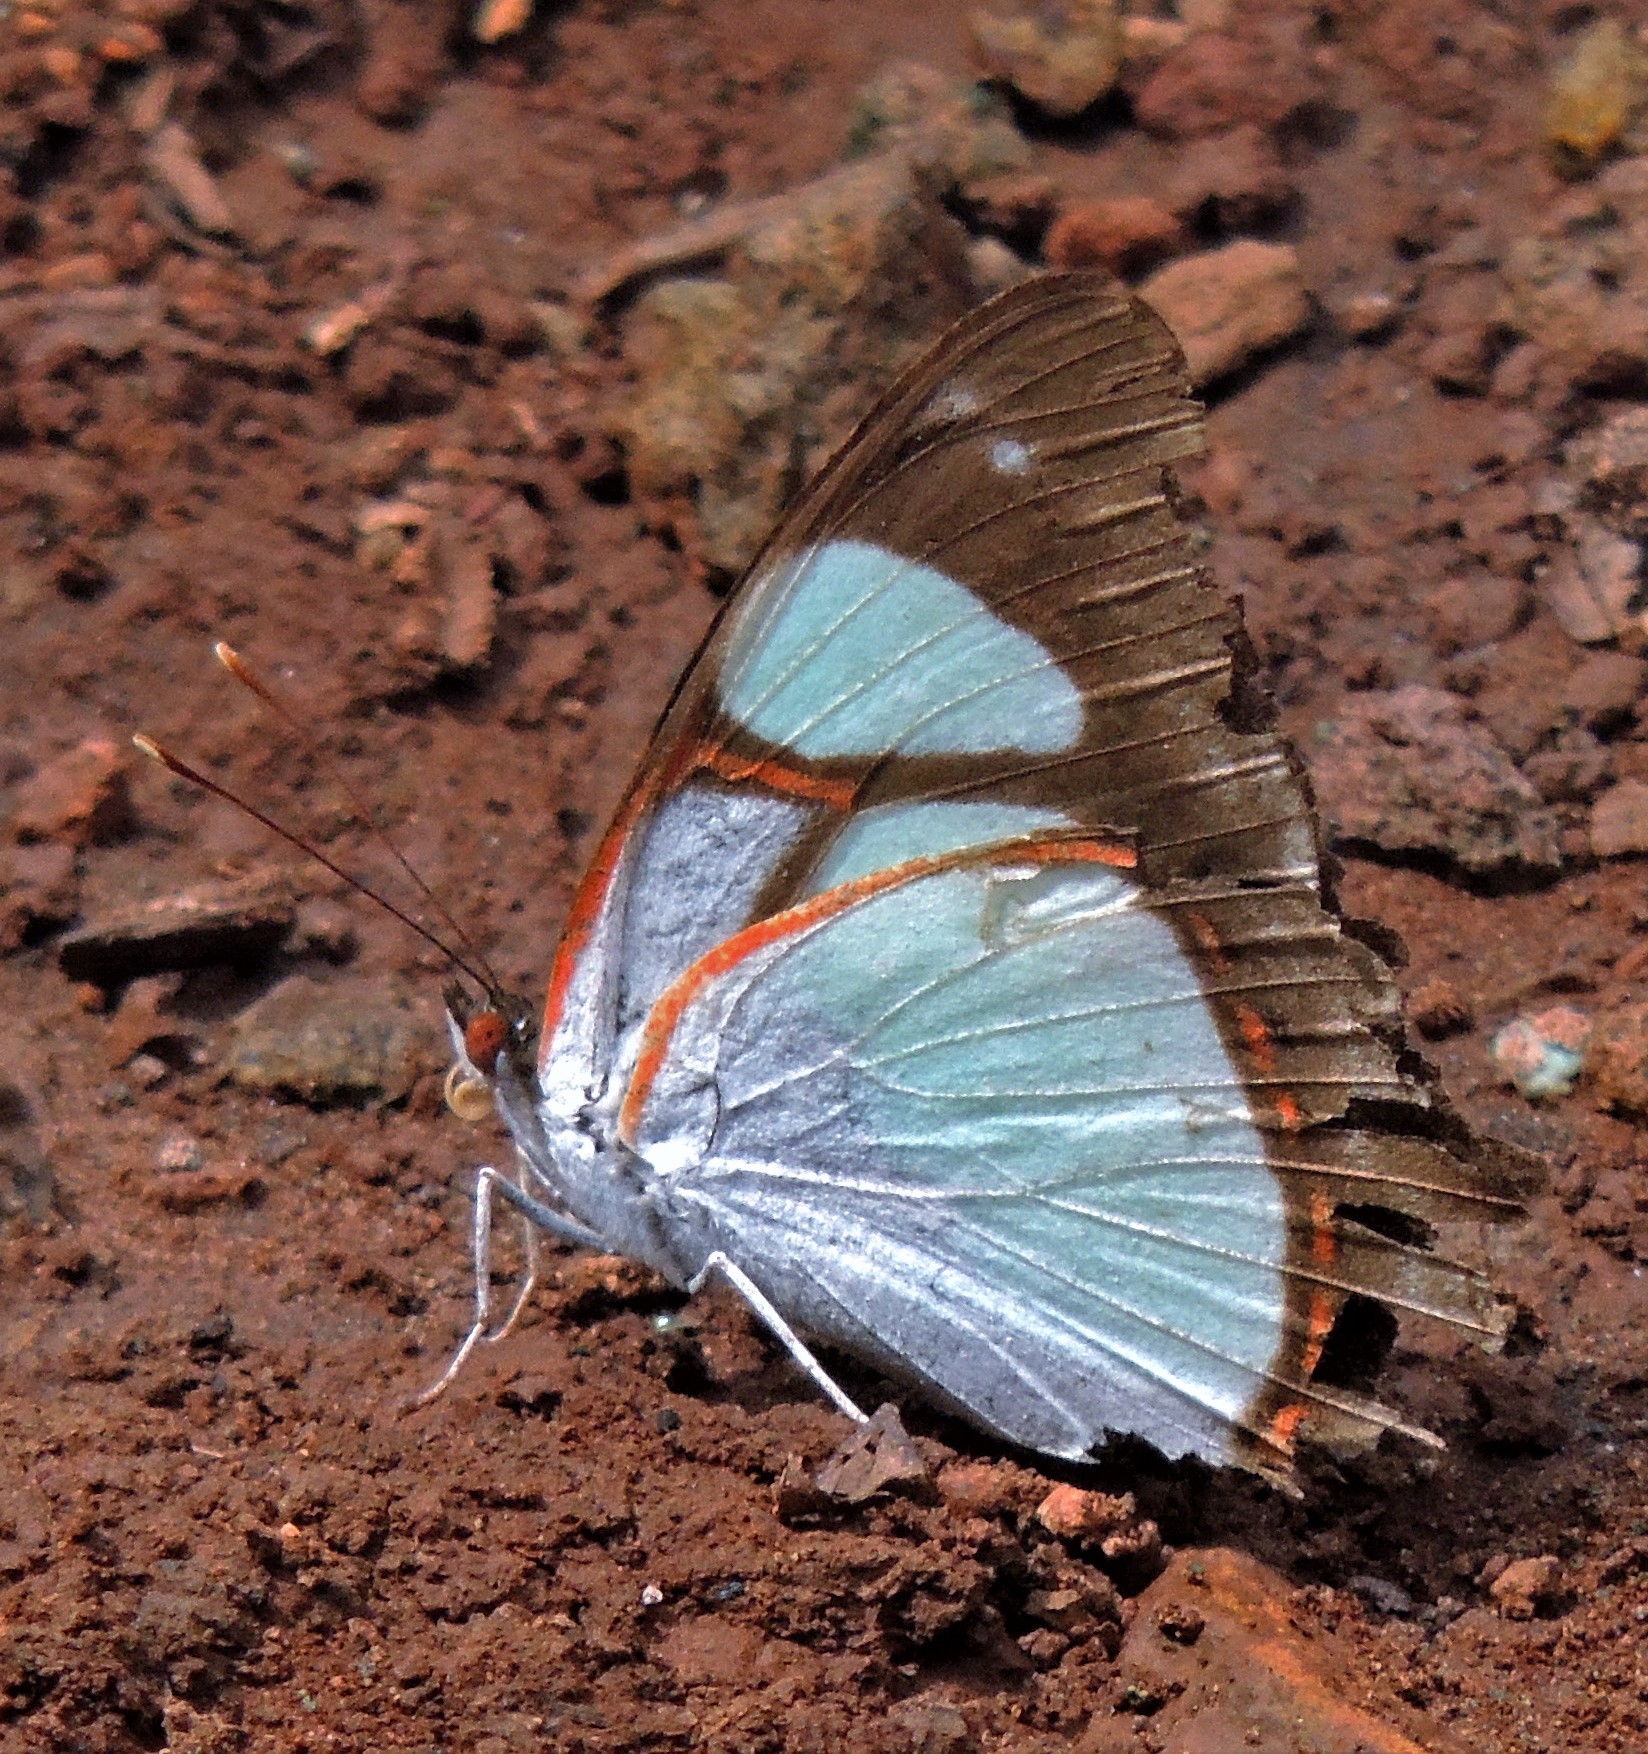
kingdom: Animalia
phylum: Arthropoda
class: Insecta
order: Lepidoptera
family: Nymphalidae
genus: Pyrrhogyra
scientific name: Pyrrhogyra neaerea
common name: Leading red-ring
